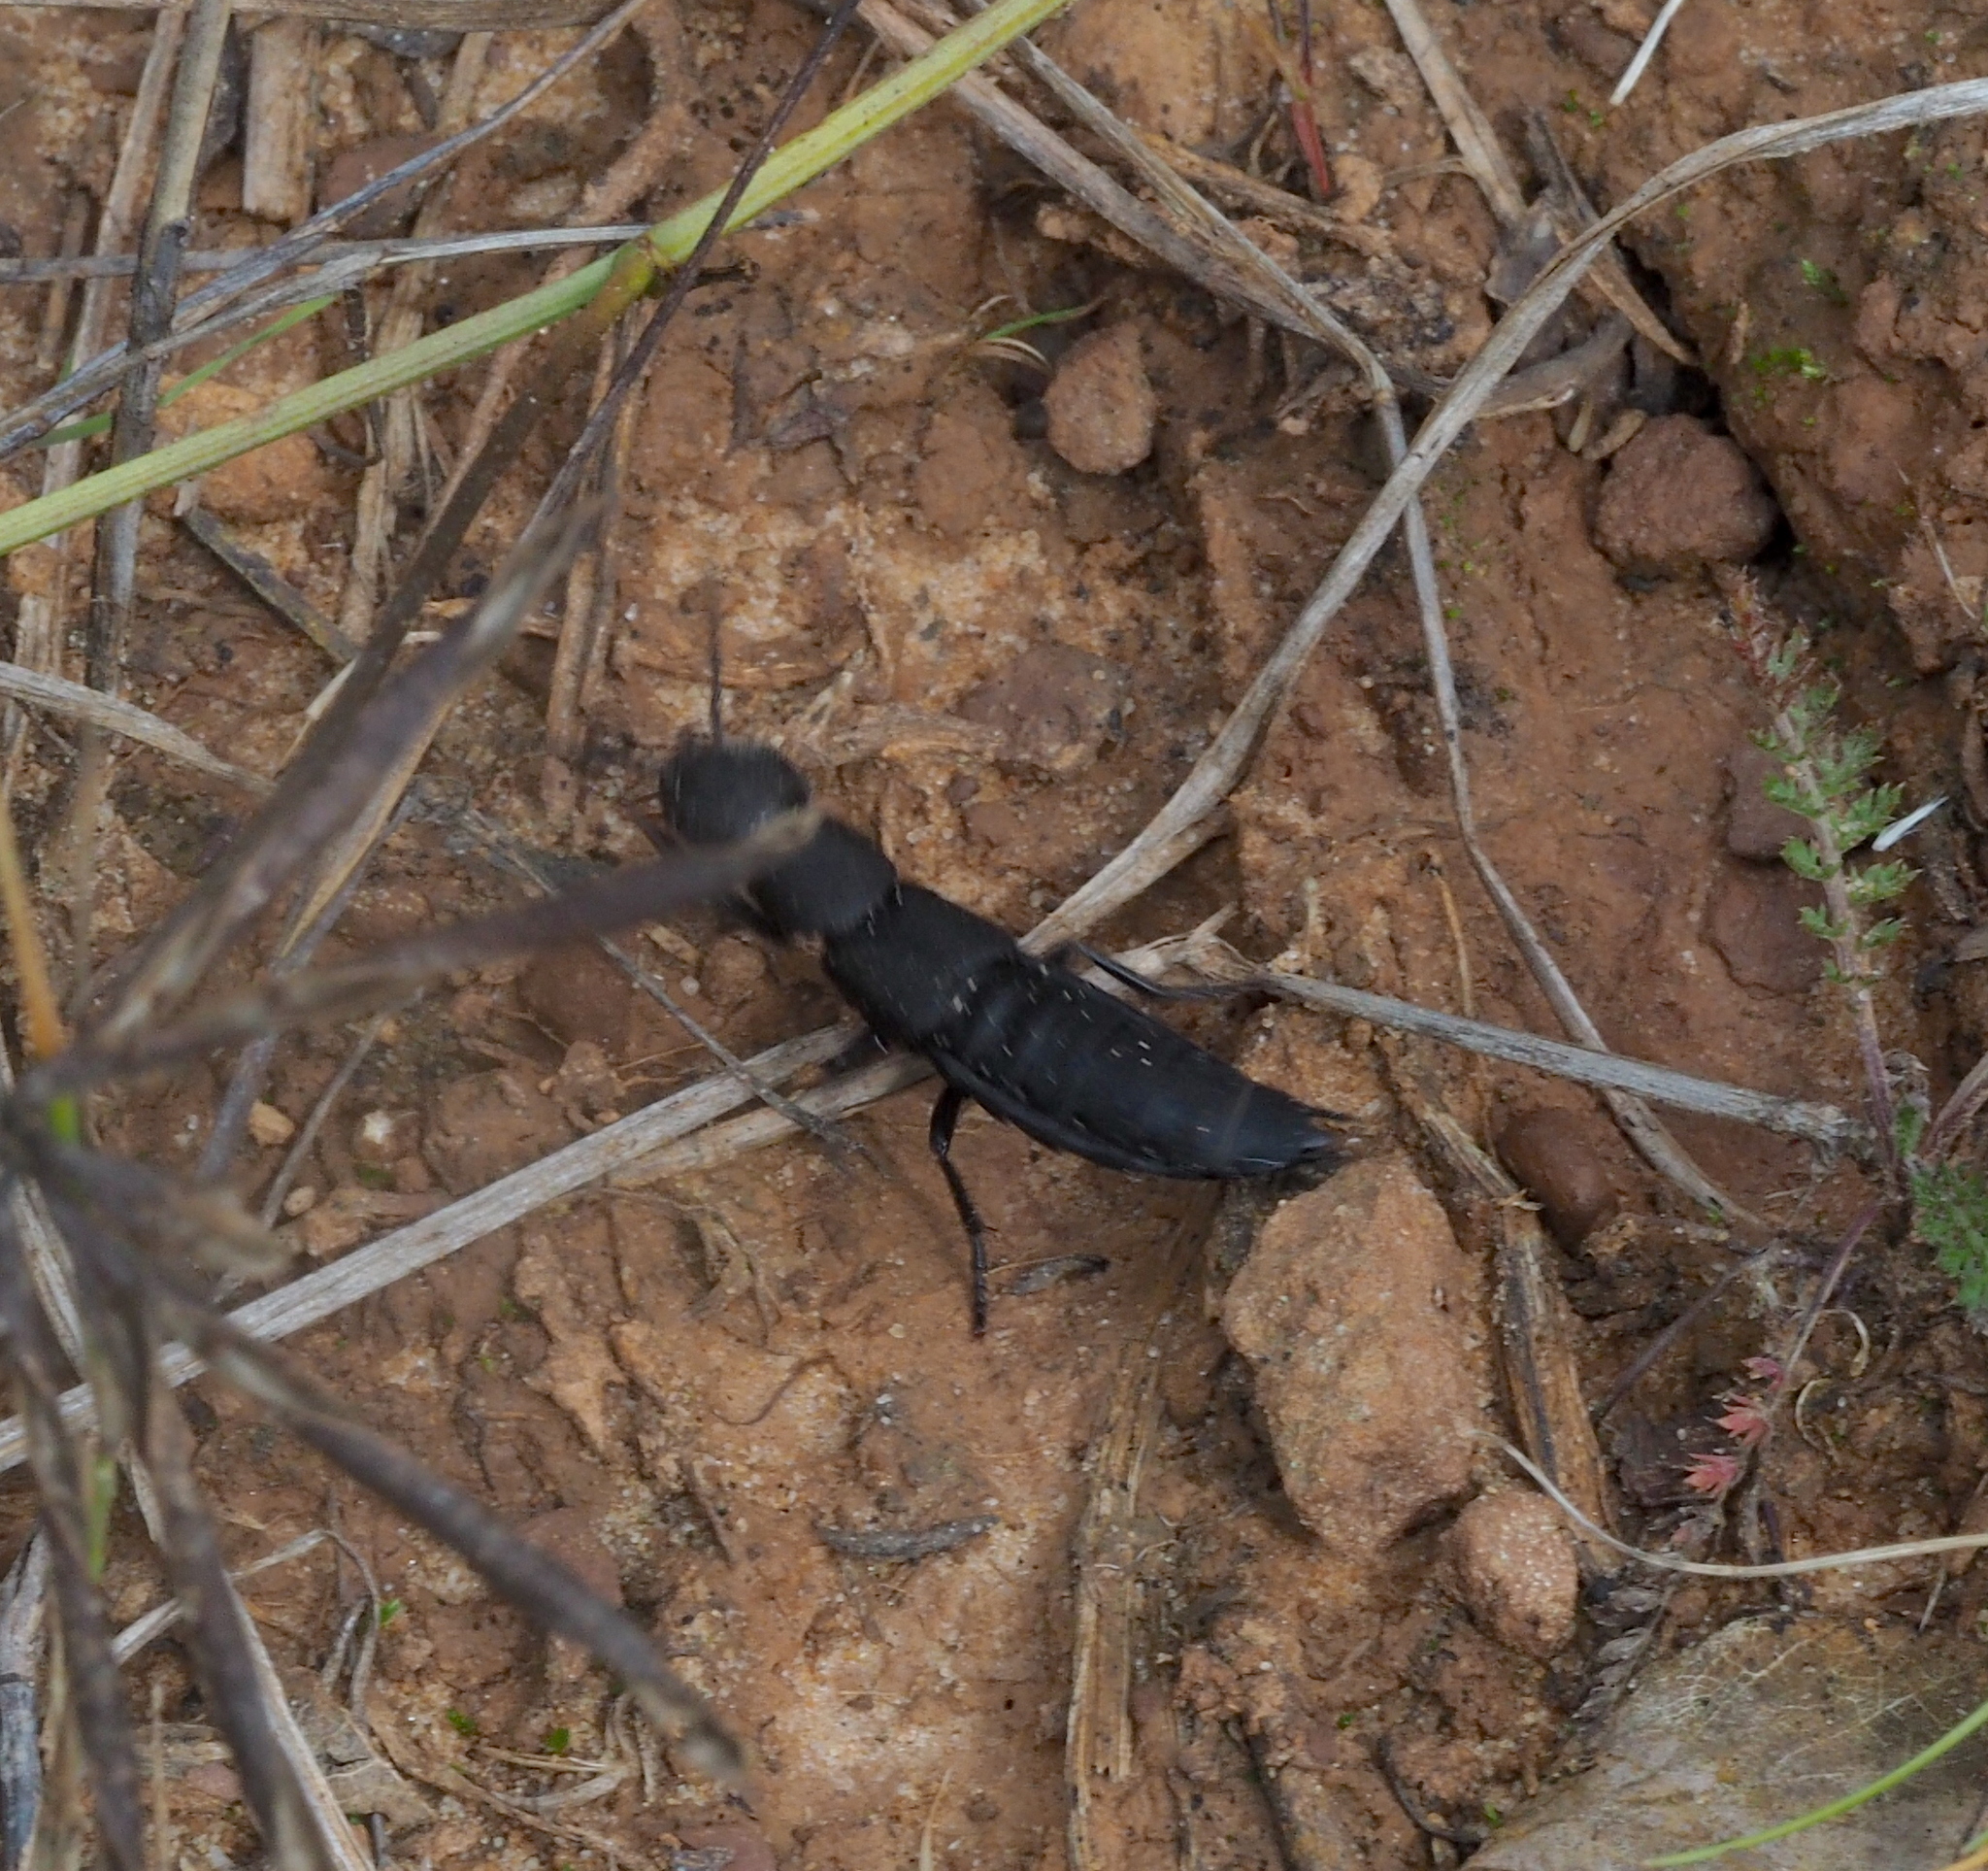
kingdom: Animalia
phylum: Arthropoda
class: Insecta
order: Coleoptera
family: Staphylinidae
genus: Ocypus
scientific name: Ocypus olens
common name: Devil's coach-horse
